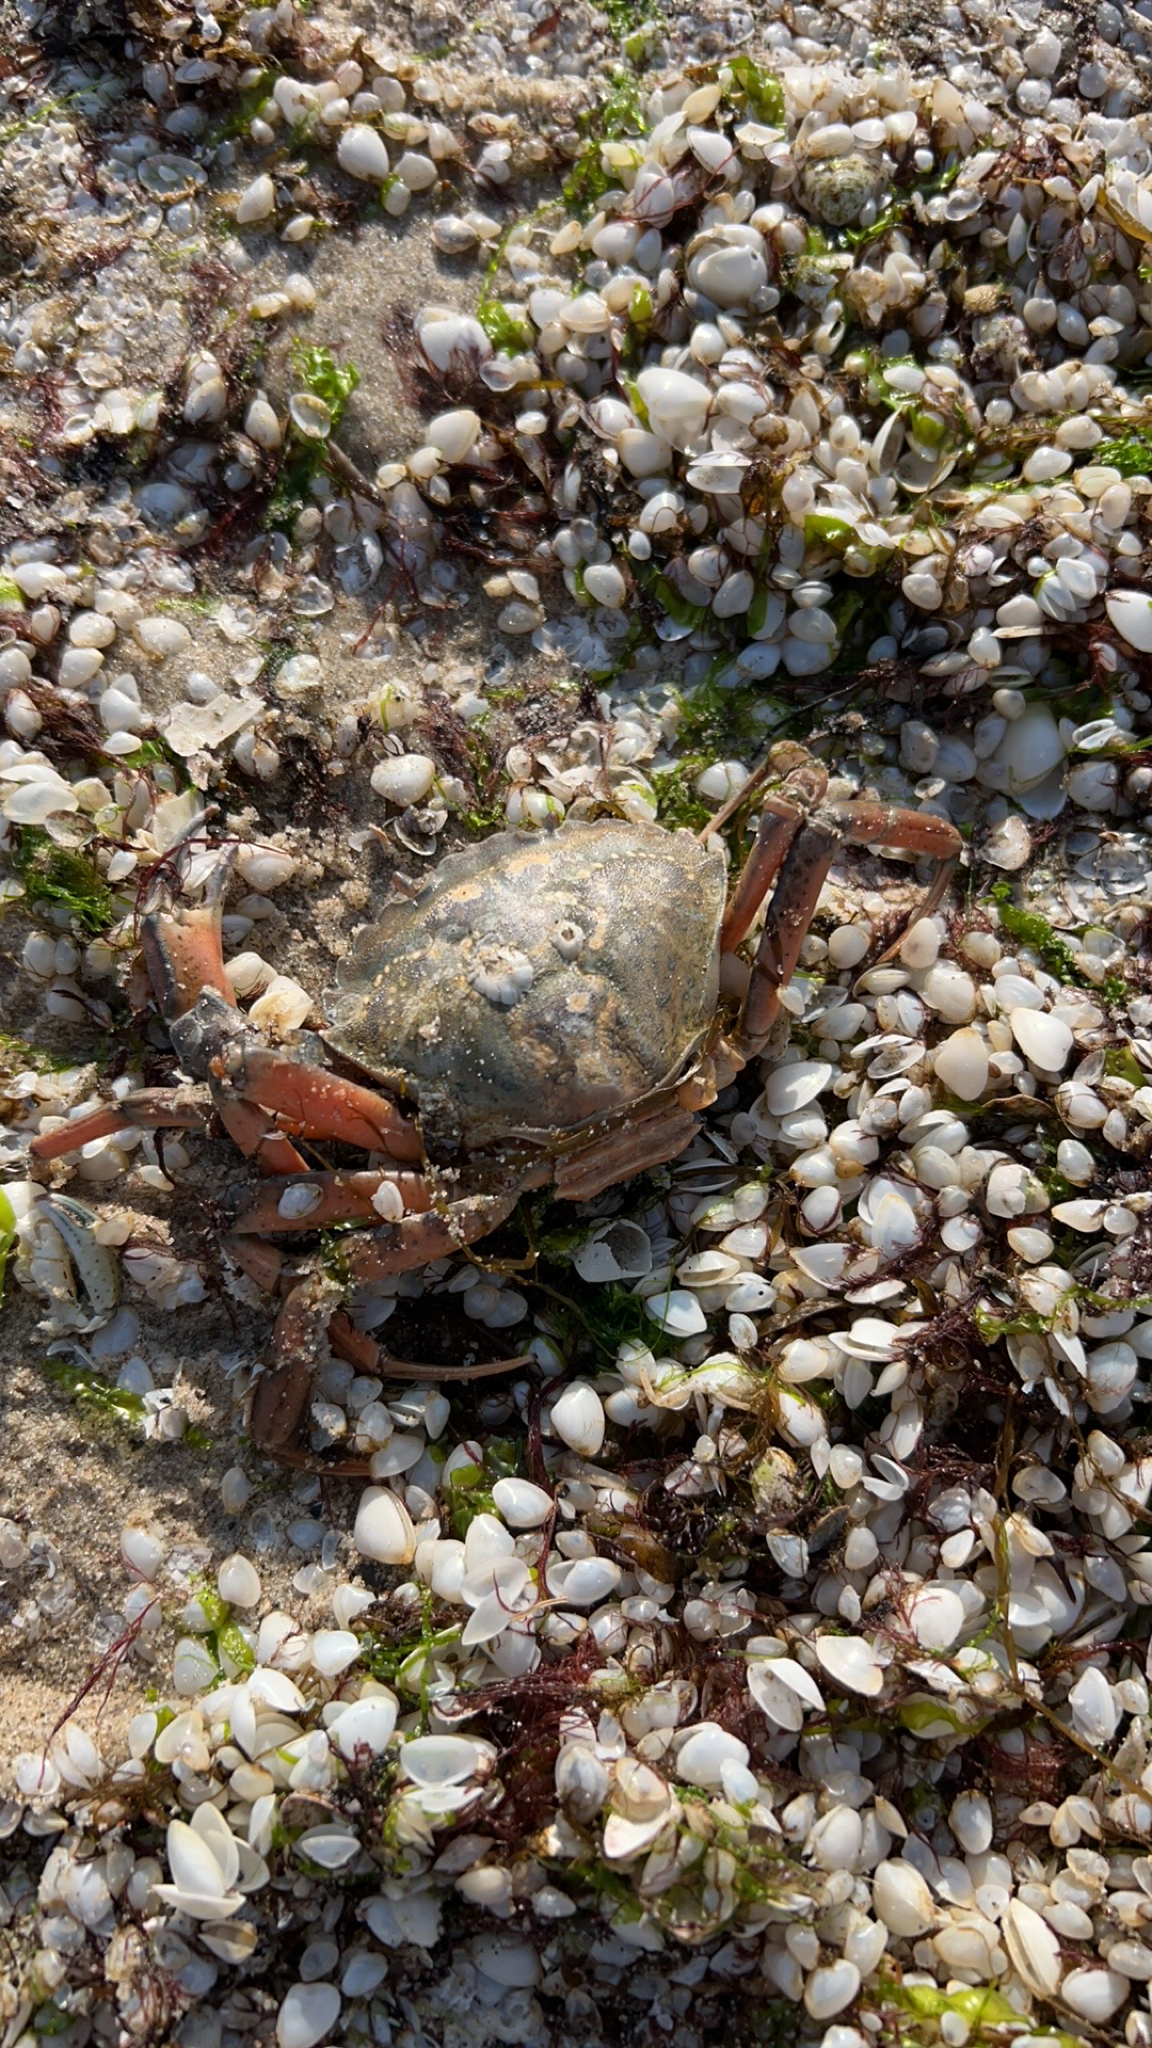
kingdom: Animalia
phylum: Arthropoda
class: Malacostraca
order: Decapoda
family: Carcinidae
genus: Carcinus
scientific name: Carcinus maenas
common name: European green crab
